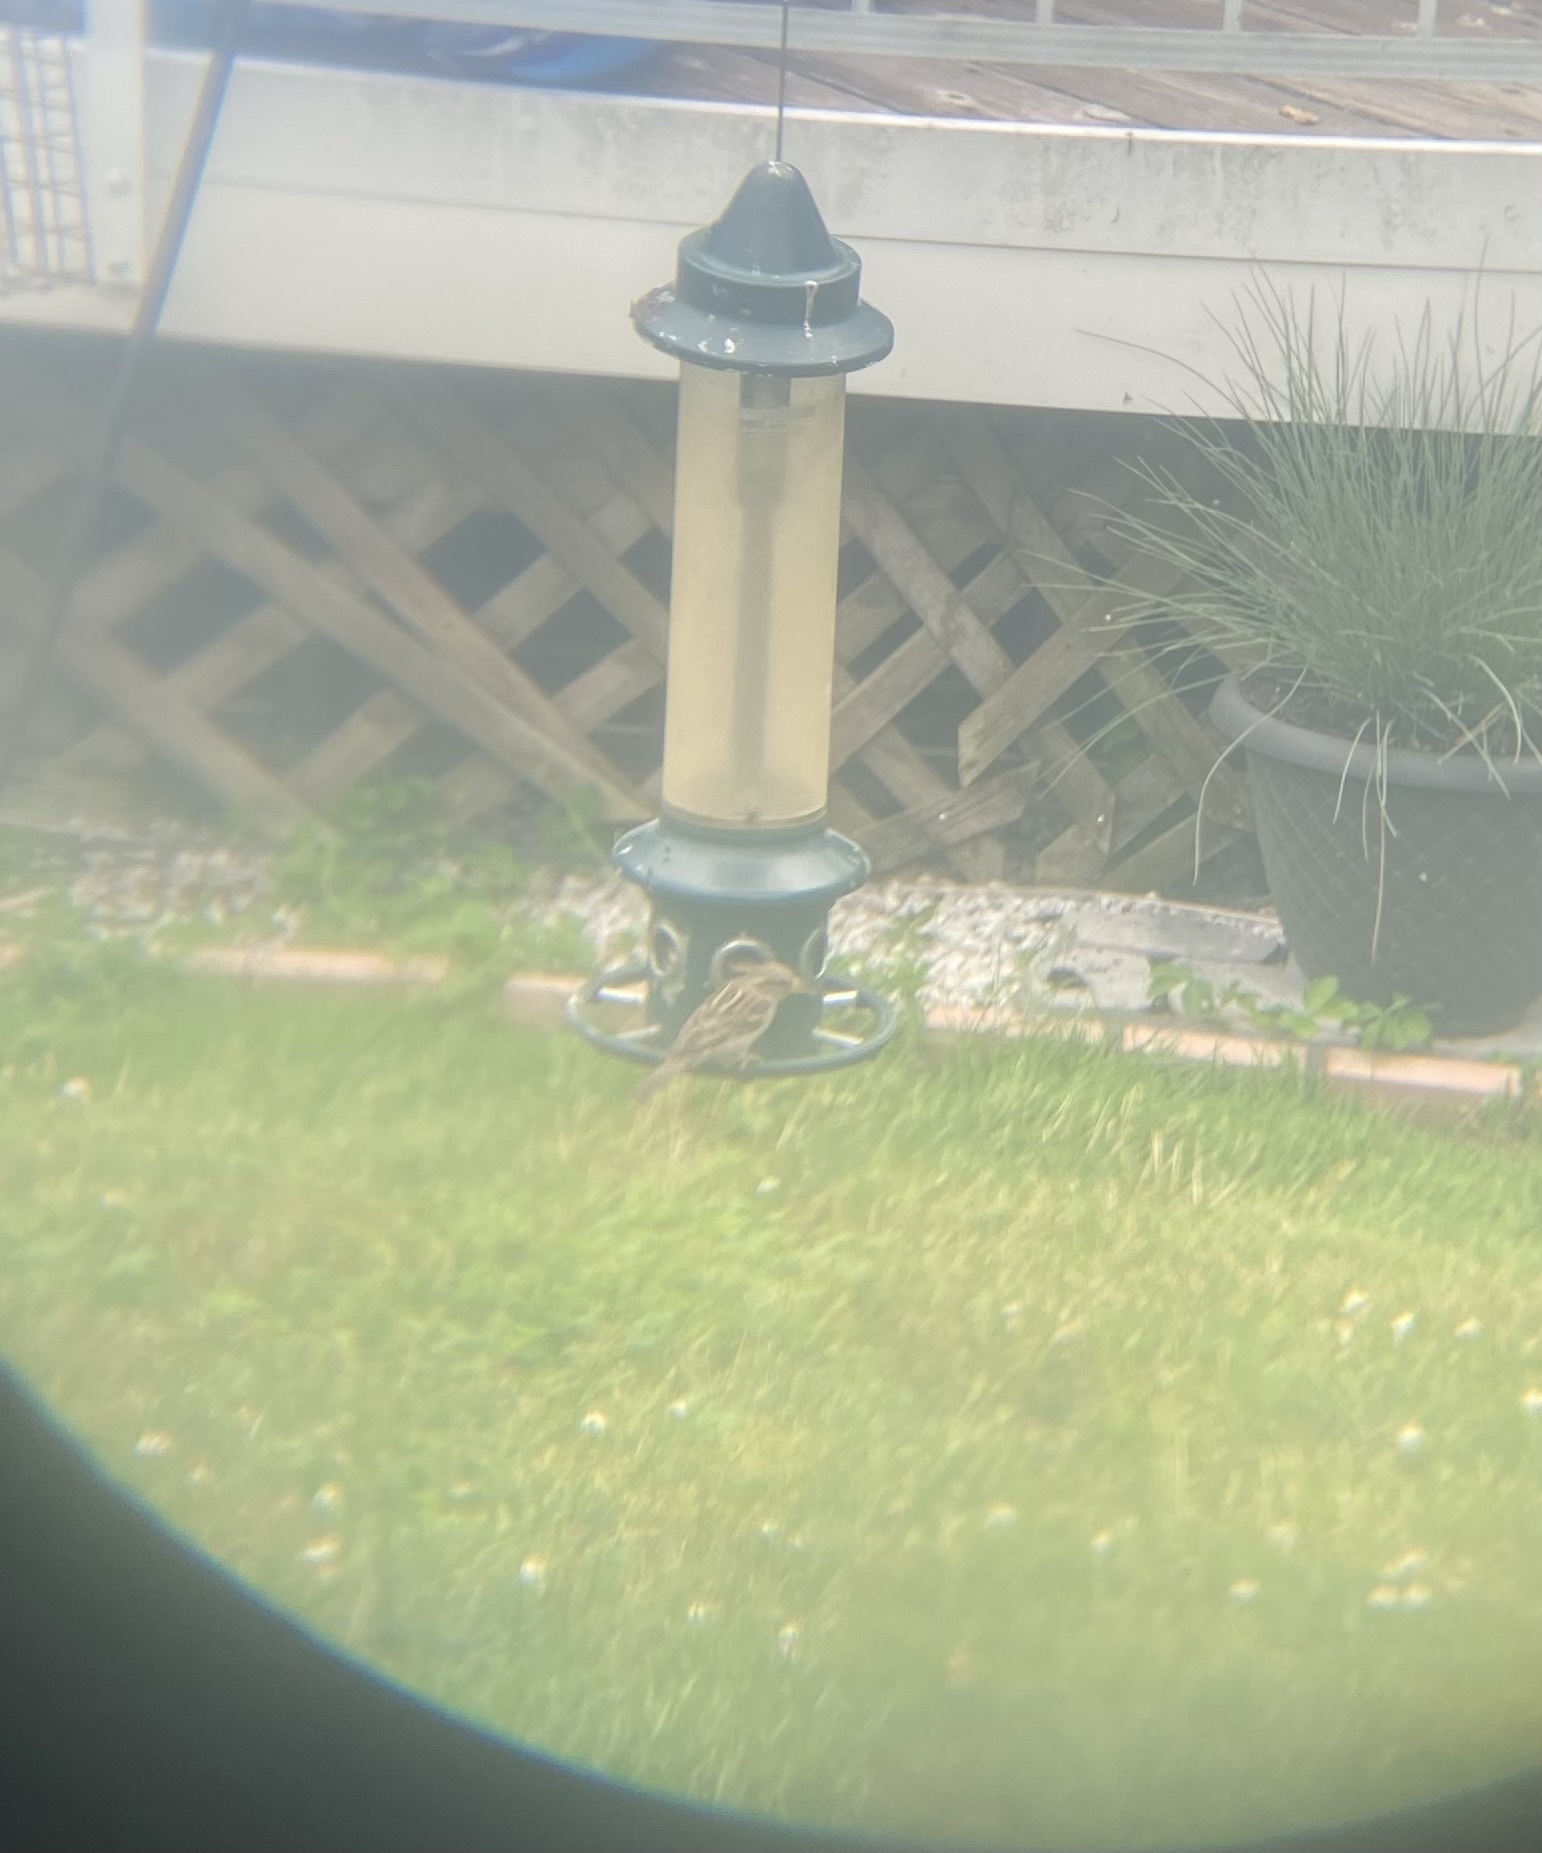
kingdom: Animalia
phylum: Chordata
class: Aves
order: Passeriformes
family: Passeridae
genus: Passer
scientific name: Passer domesticus
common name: House sparrow
